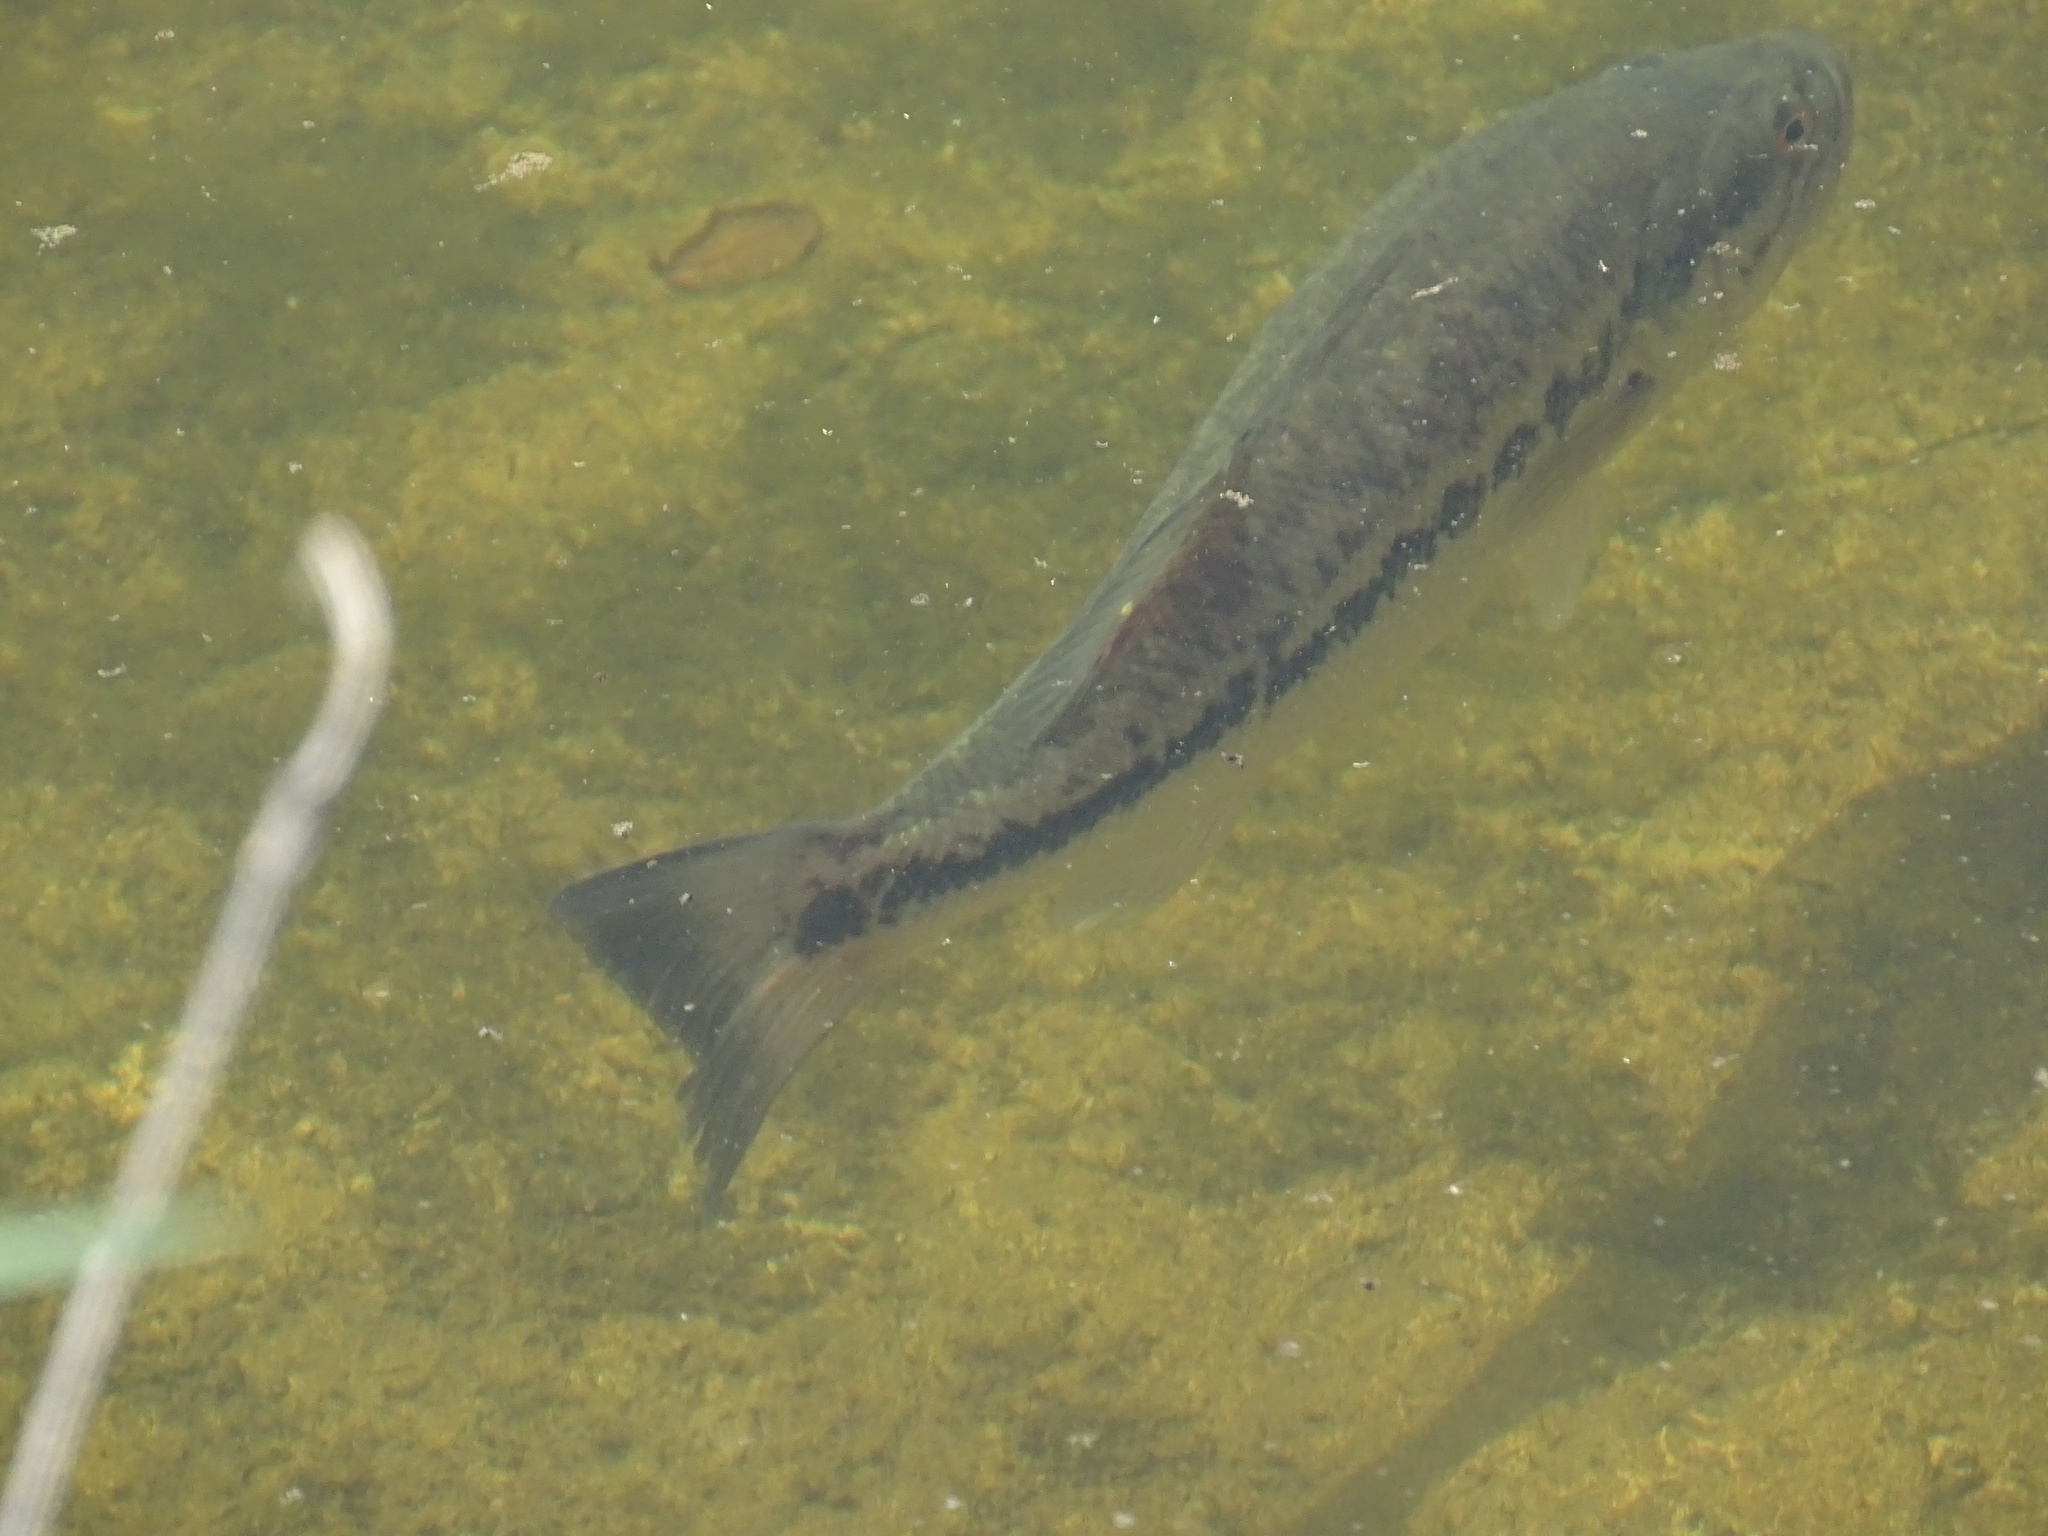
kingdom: Animalia
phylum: Chordata
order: Perciformes
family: Centrarchidae
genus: Micropterus
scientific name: Micropterus
